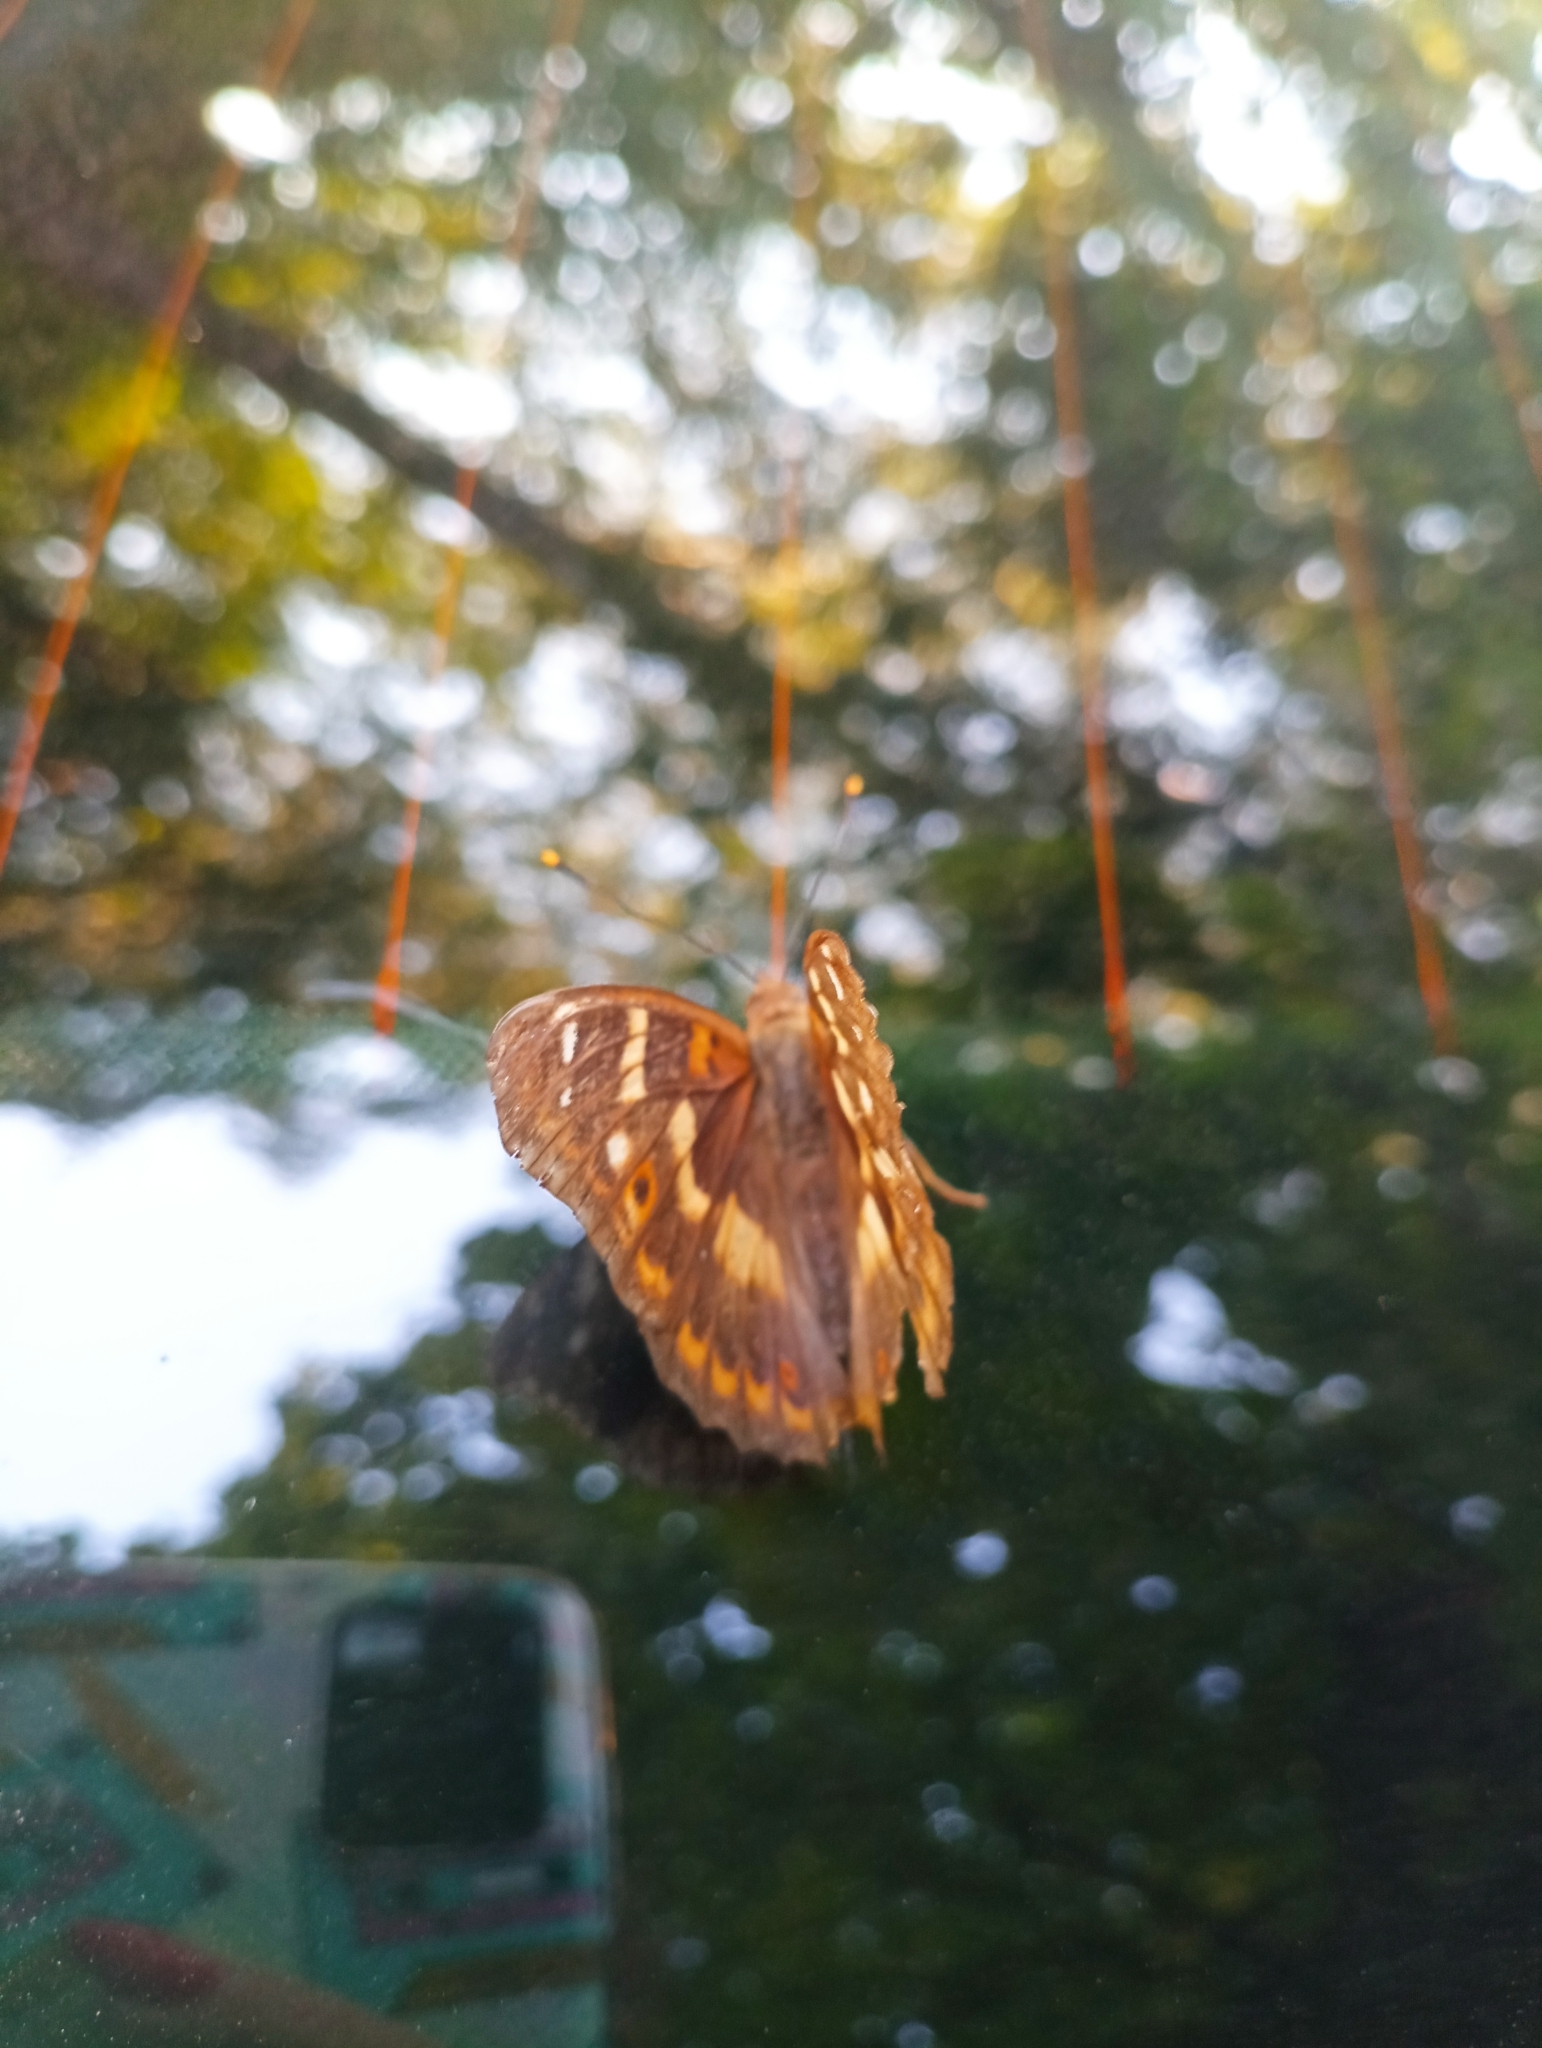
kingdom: Animalia
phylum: Arthropoda
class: Insecta
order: Lepidoptera
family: Nymphalidae
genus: Apatura
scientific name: Apatura ilia
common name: Lesser purple emperor
